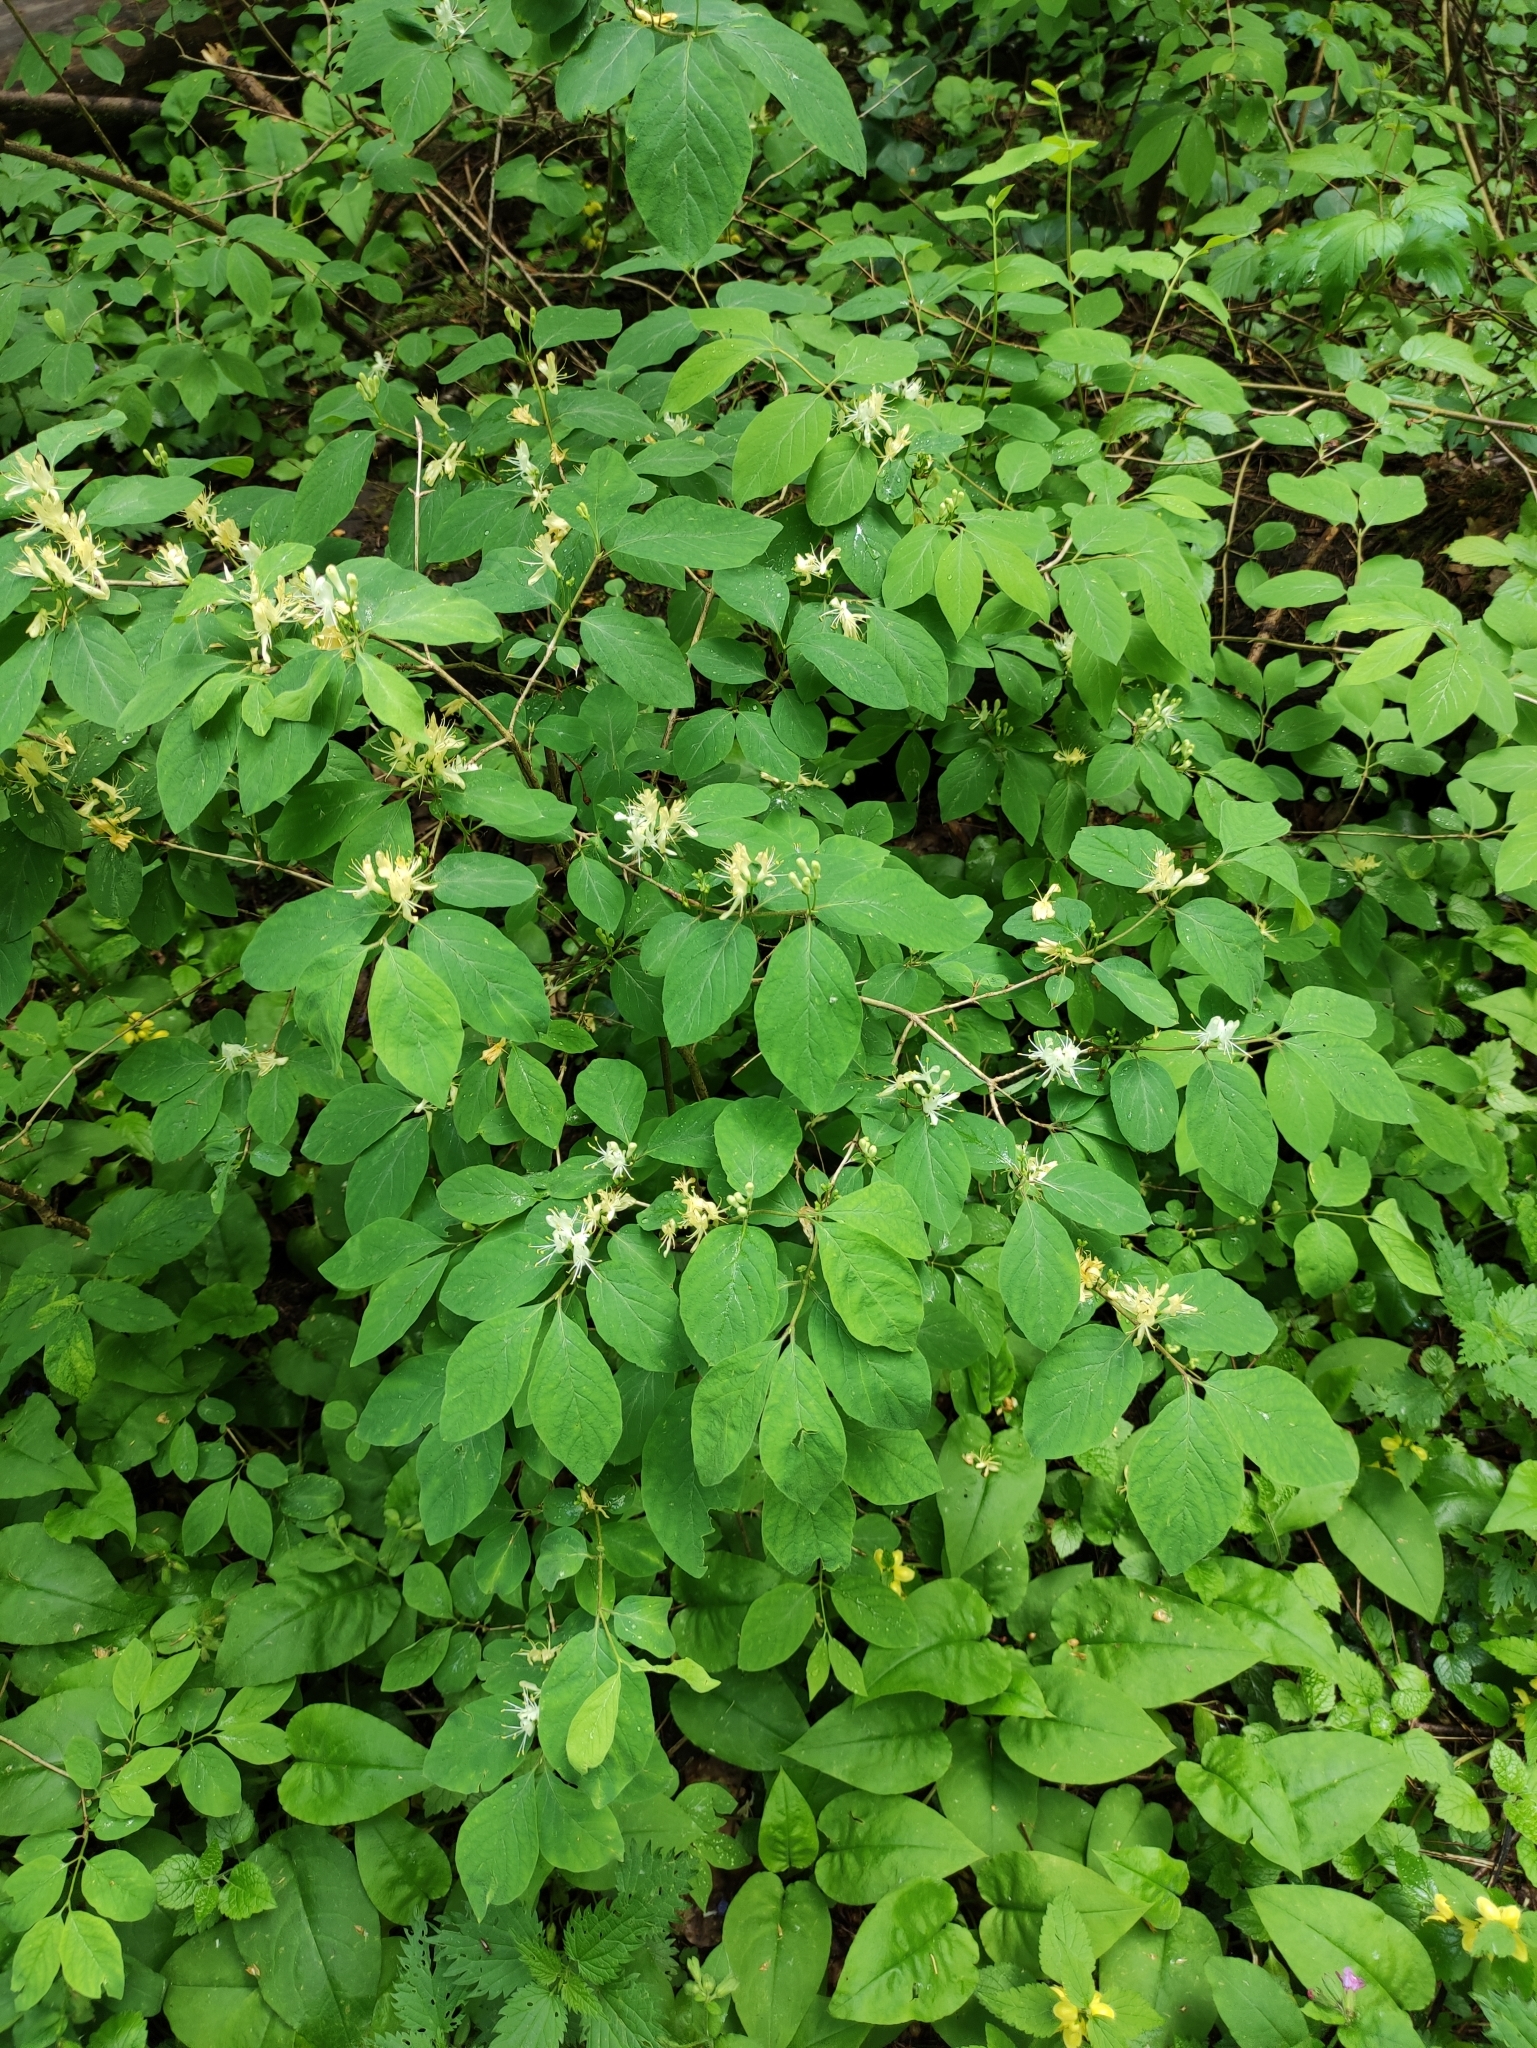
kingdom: Plantae
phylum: Tracheophyta
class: Magnoliopsida
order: Dipsacales
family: Caprifoliaceae
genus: Lonicera
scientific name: Lonicera xylosteum
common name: Fly honeysuckle
